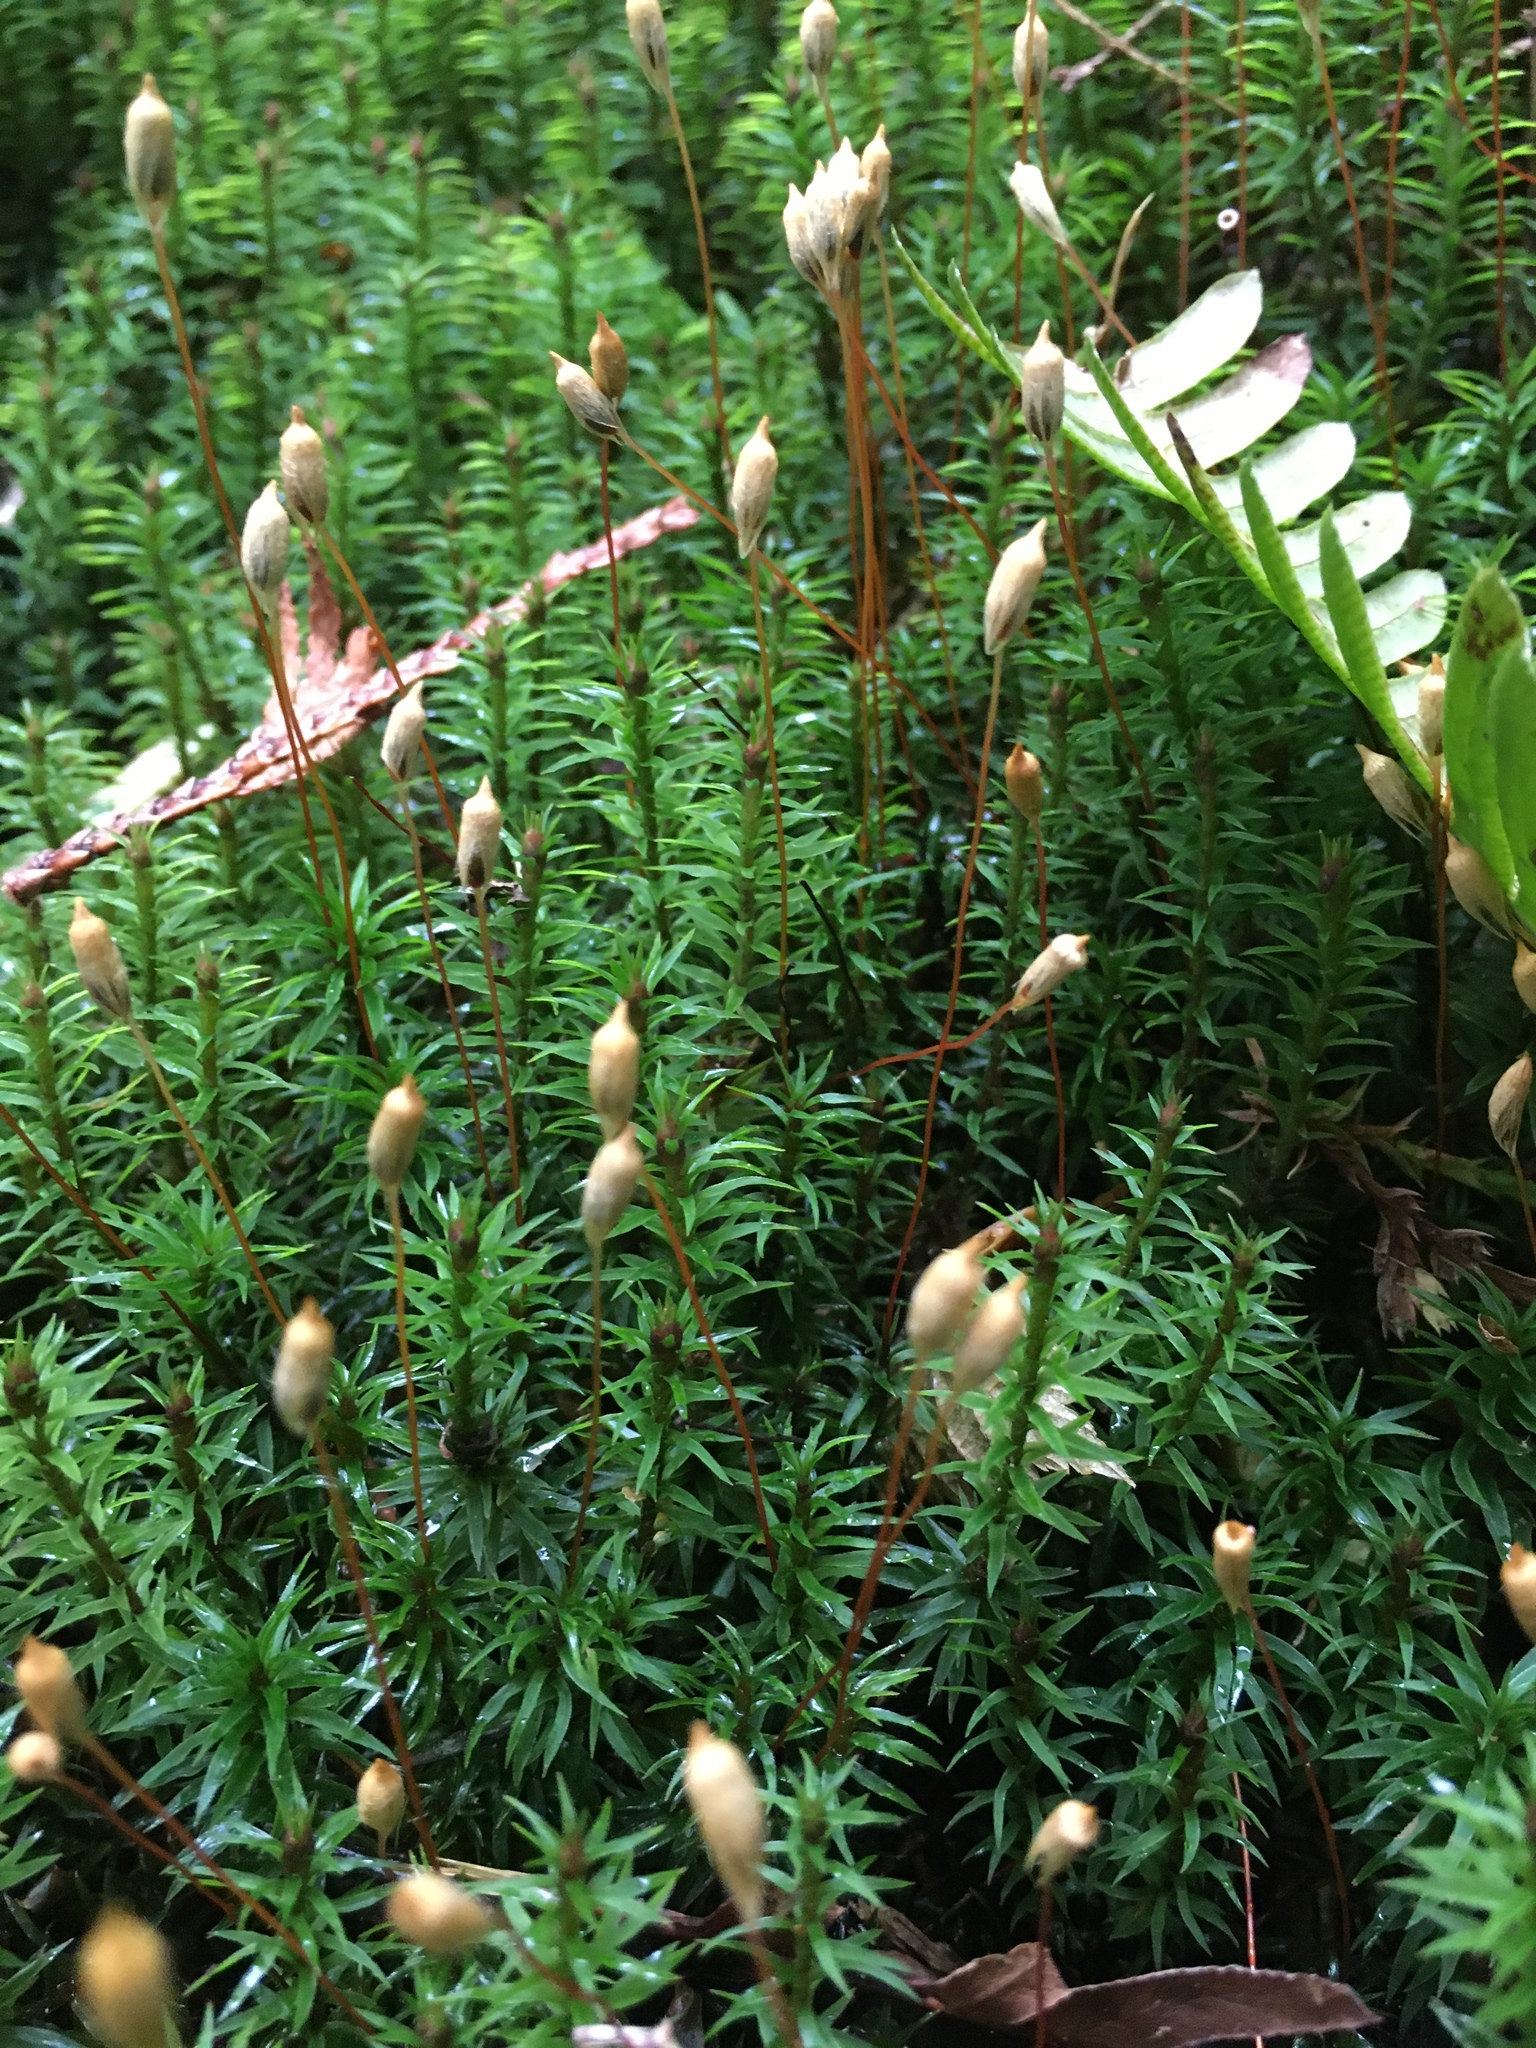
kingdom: Plantae
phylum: Bryophyta
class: Polytrichopsida
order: Polytrichales
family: Polytrichaceae
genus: Polytrichum
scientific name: Polytrichum commune
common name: Common haircap
